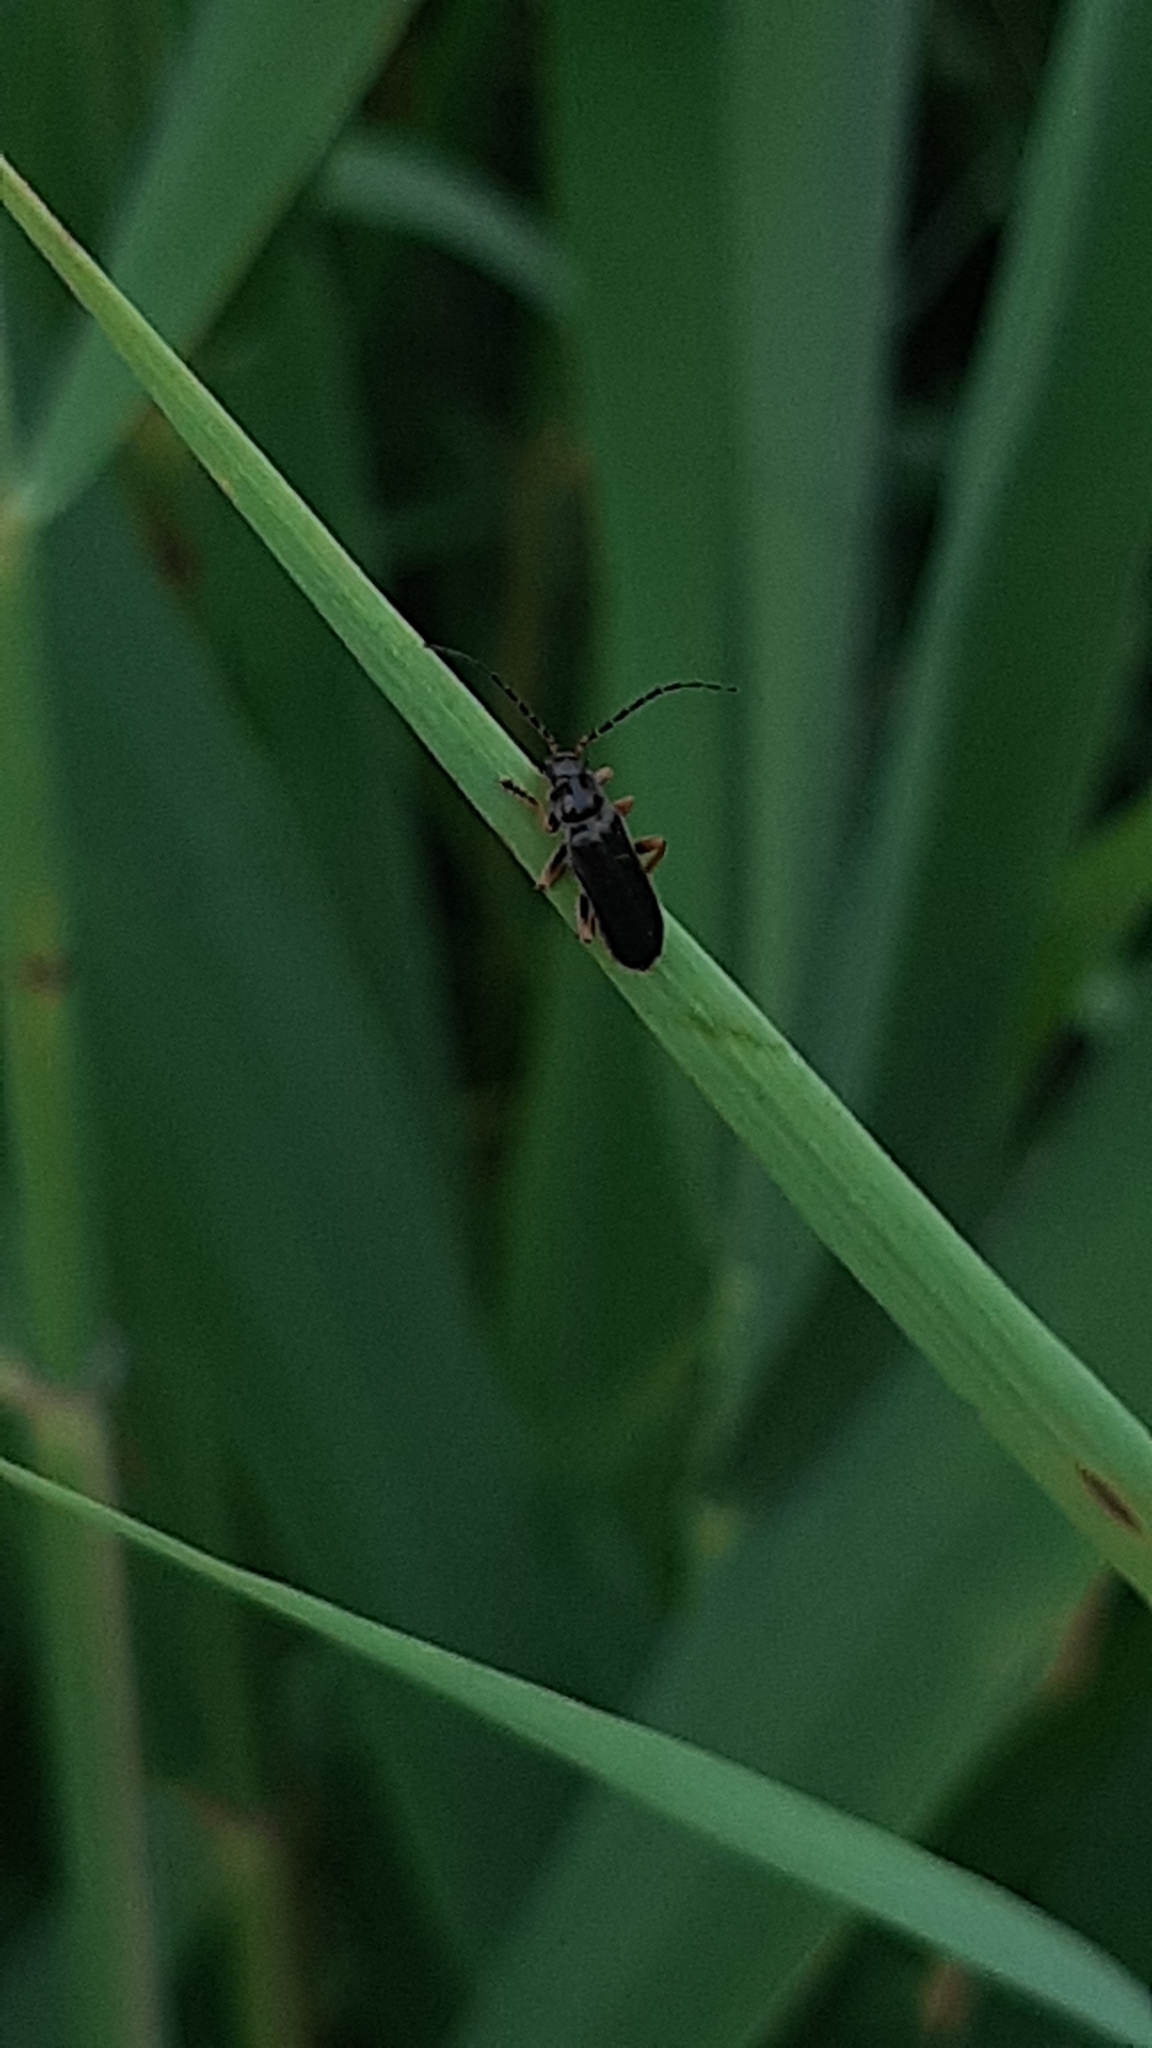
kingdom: Animalia
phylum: Arthropoda
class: Insecta
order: Coleoptera
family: Cantharidae
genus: Cantharis
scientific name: Cantharis flavilabris
